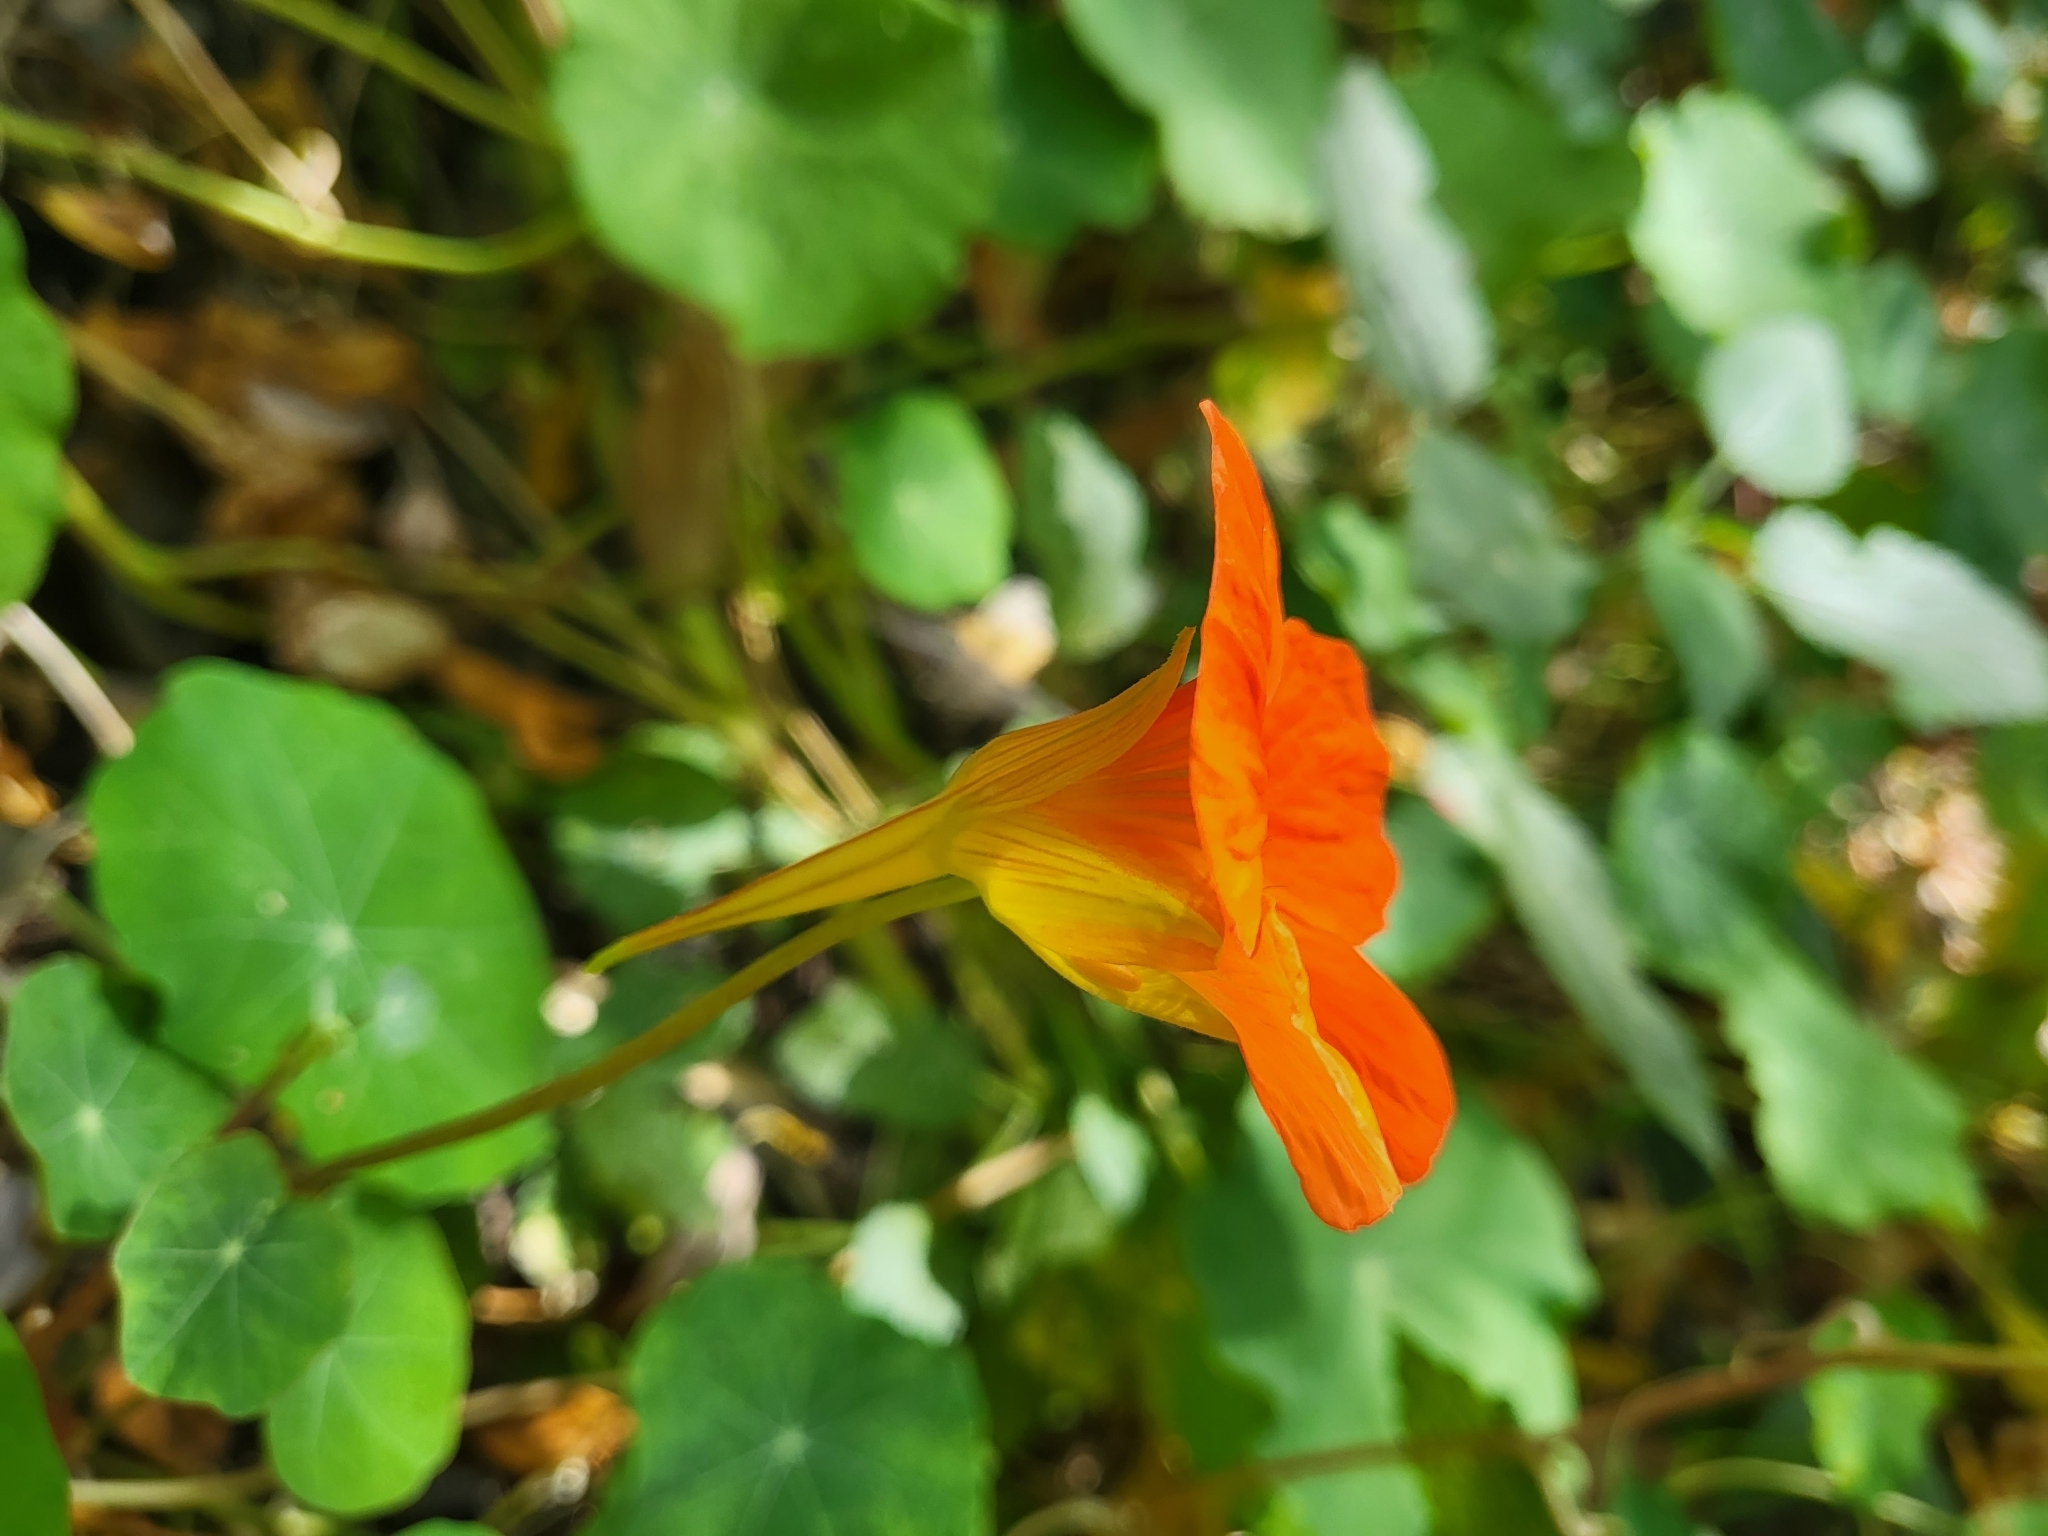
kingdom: Plantae
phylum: Tracheophyta
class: Magnoliopsida
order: Brassicales
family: Tropaeolaceae
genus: Tropaeolum
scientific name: Tropaeolum majus
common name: Nasturtium
